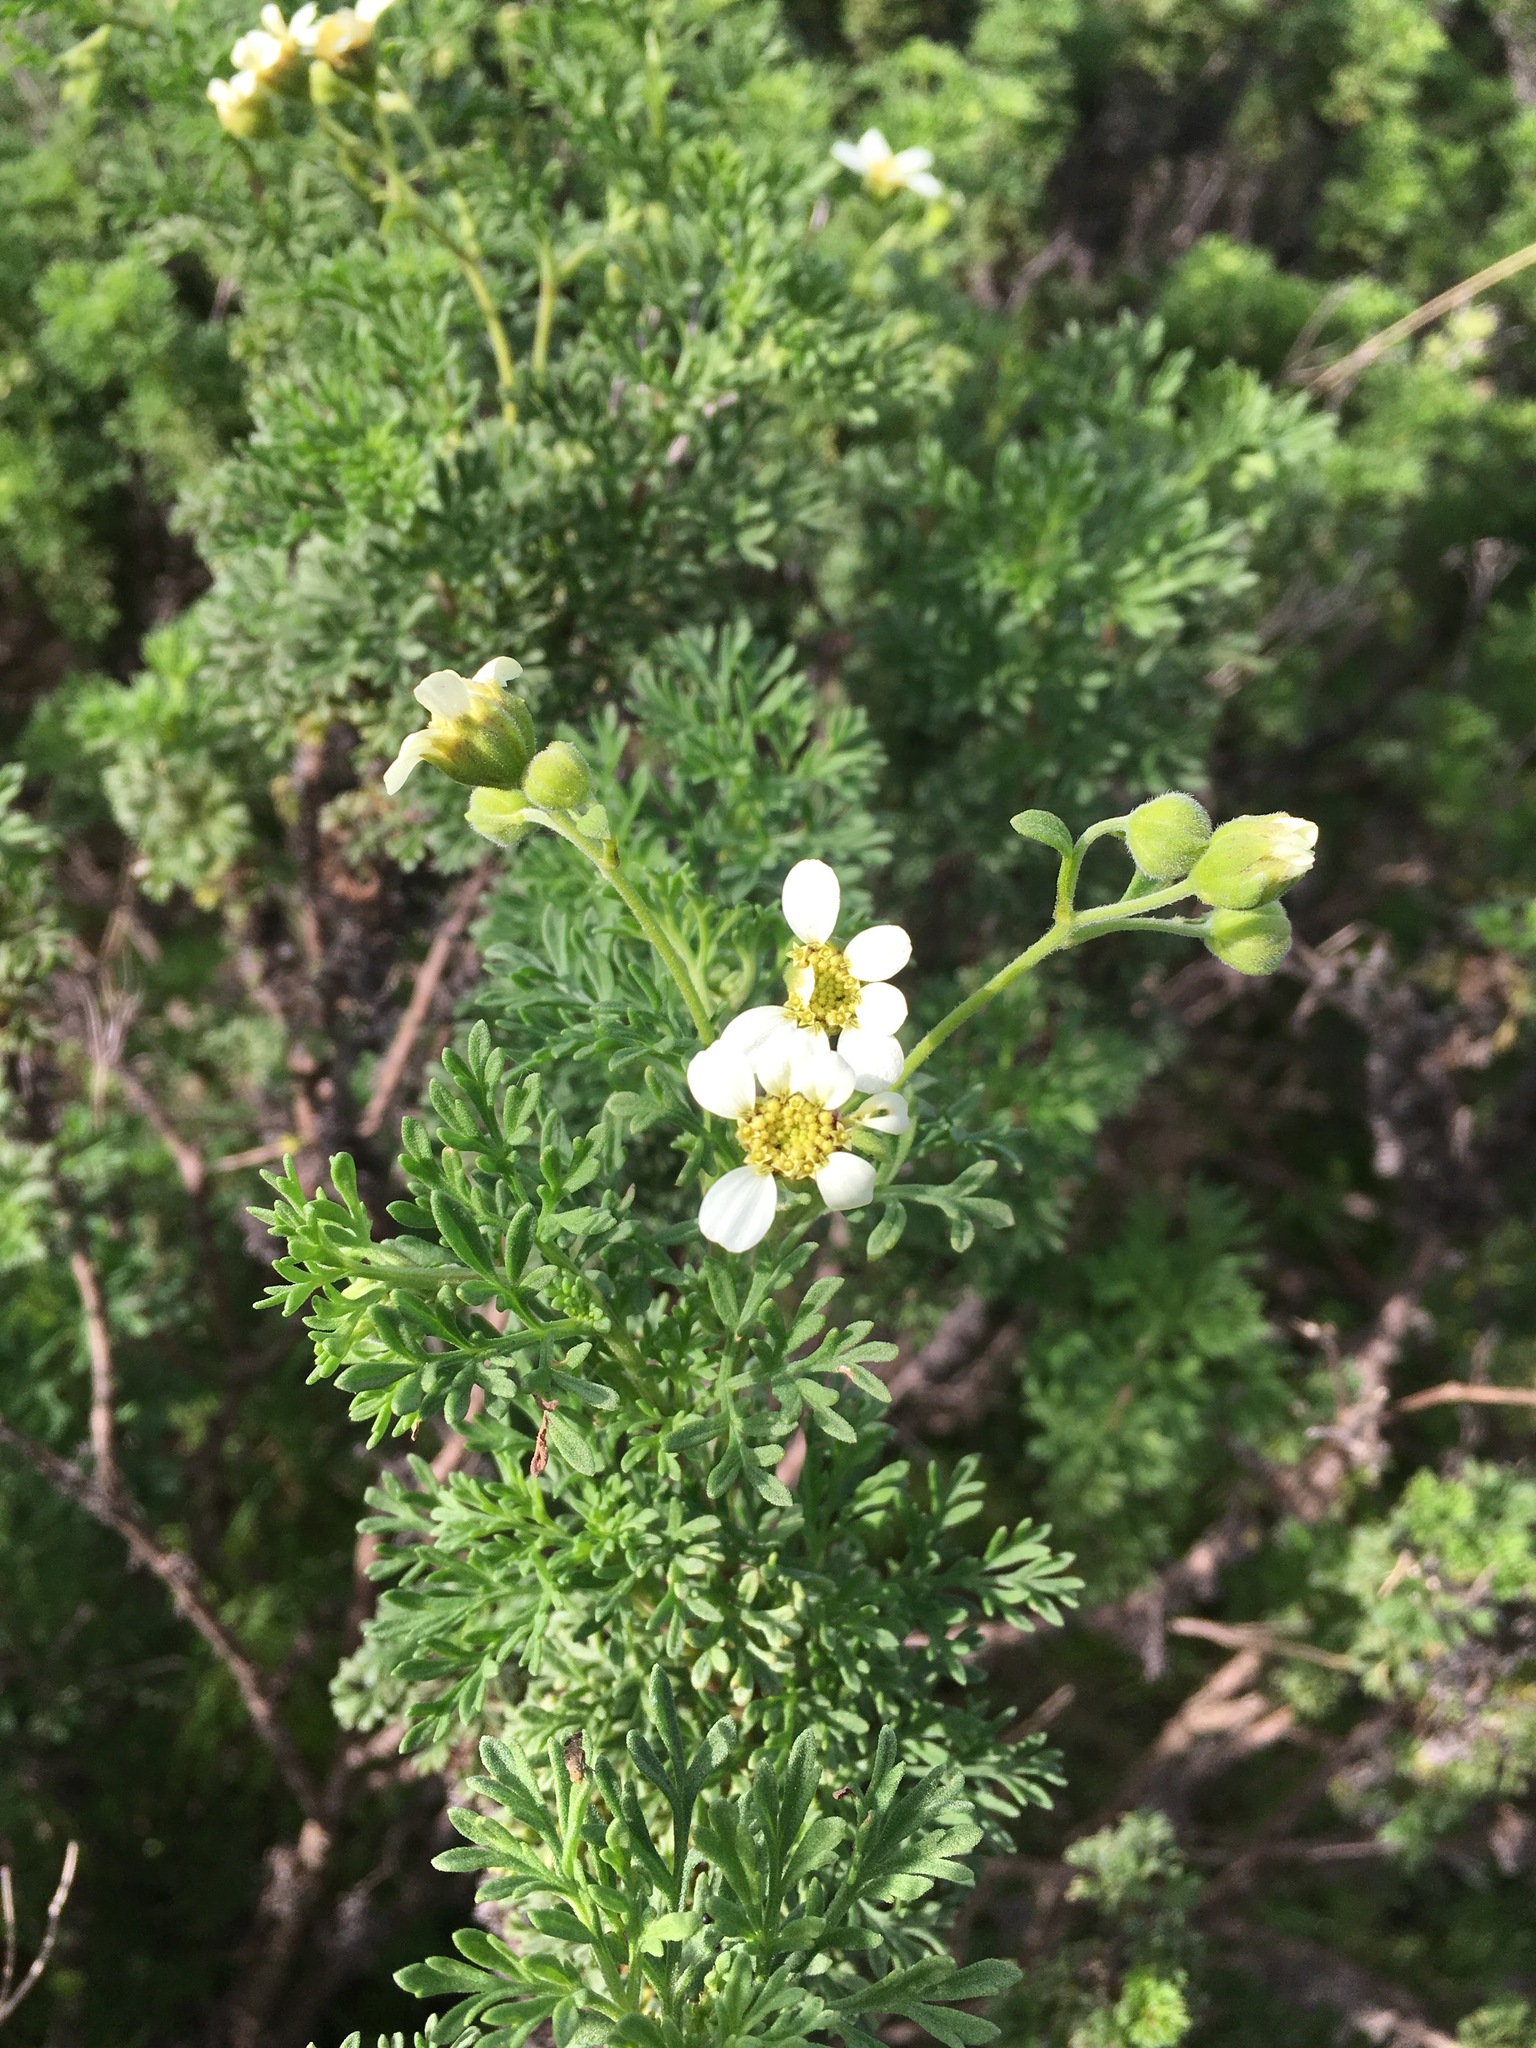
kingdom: Plantae
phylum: Tracheophyta
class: Magnoliopsida
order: Asterales
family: Asteraceae
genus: Bahia
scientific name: Bahia ambrosioides
